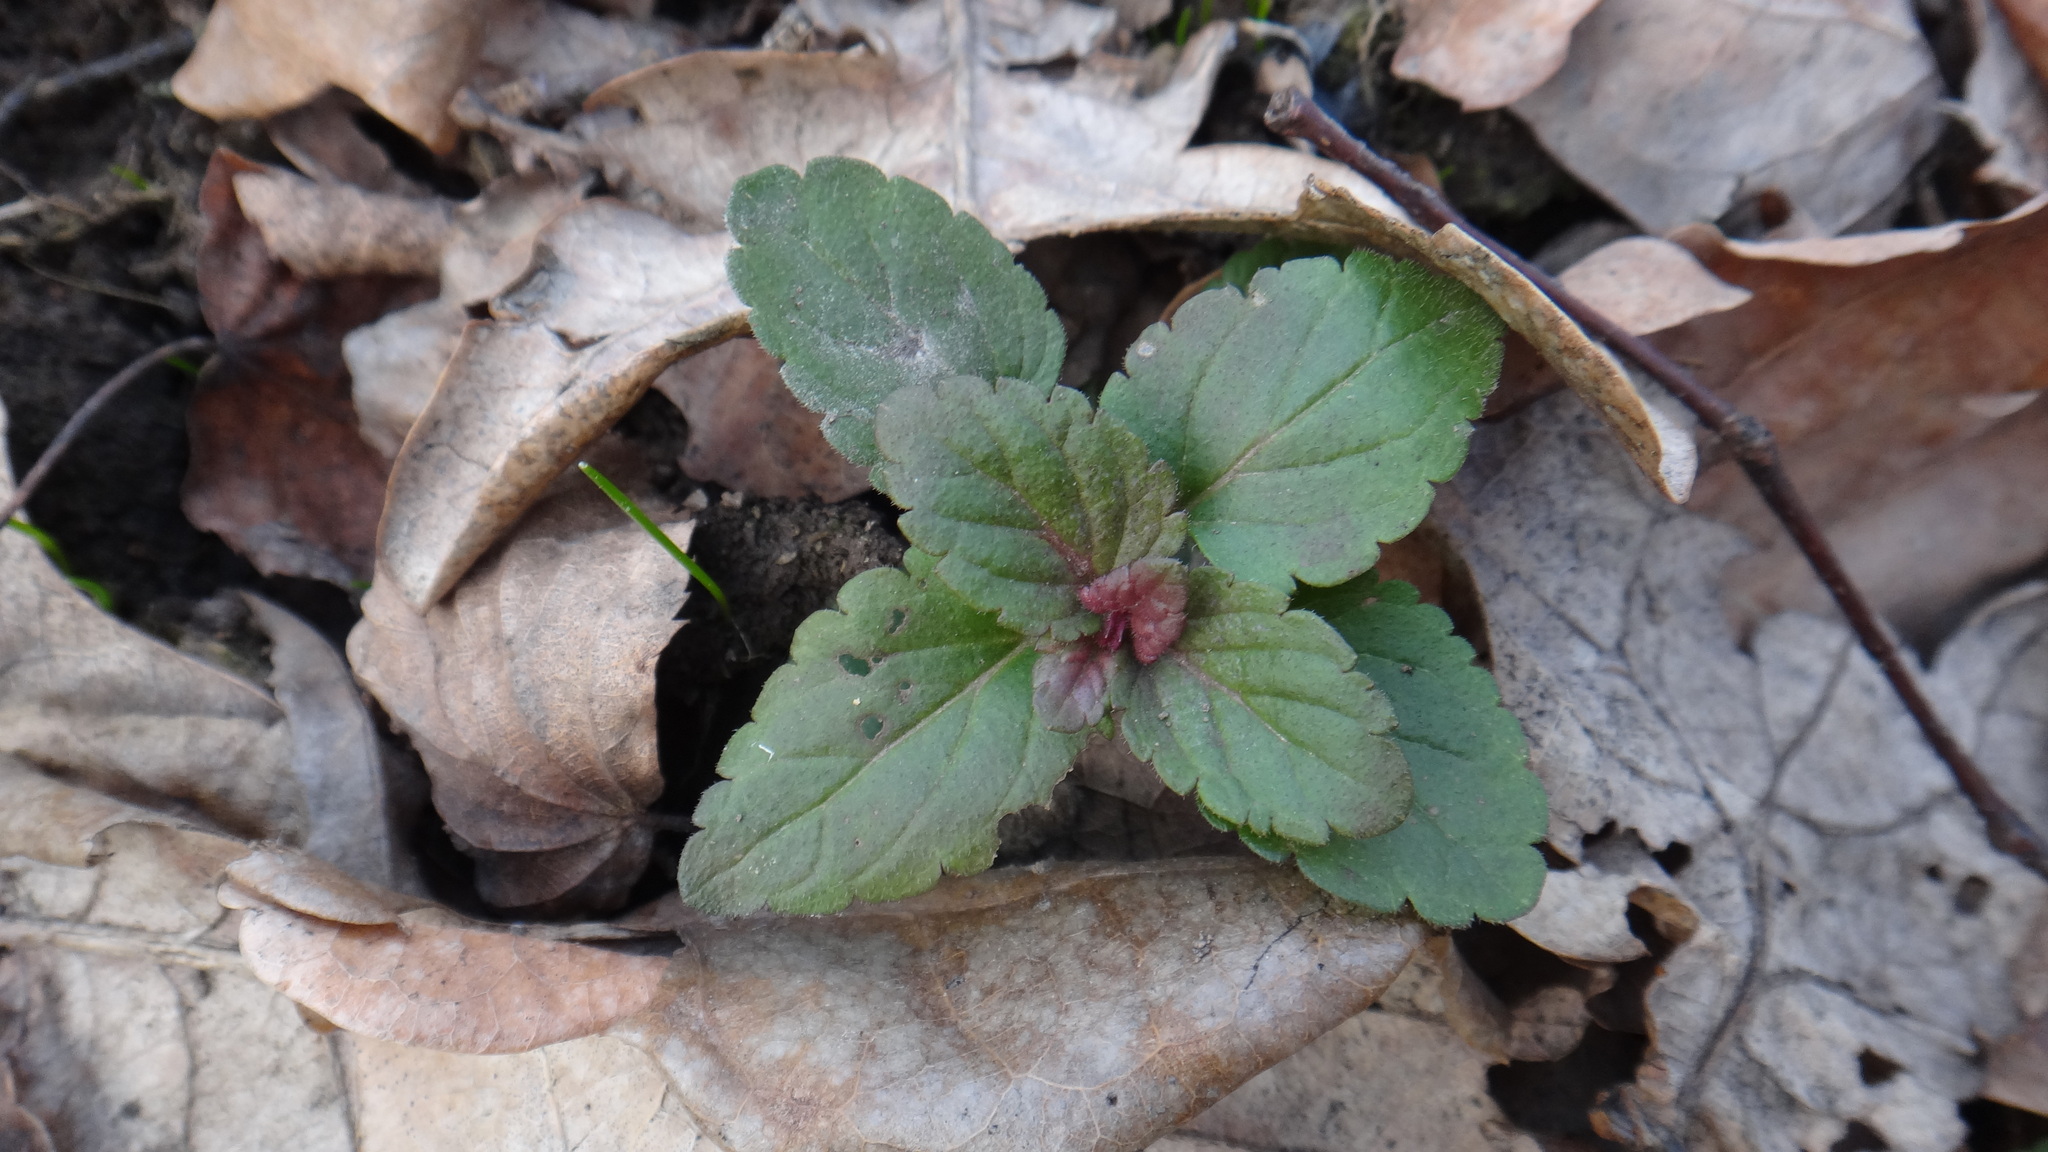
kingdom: Plantae
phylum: Tracheophyta
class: Magnoliopsida
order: Lamiales
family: Plantaginaceae
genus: Veronica
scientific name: Veronica chamaedrys
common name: Germander speedwell
